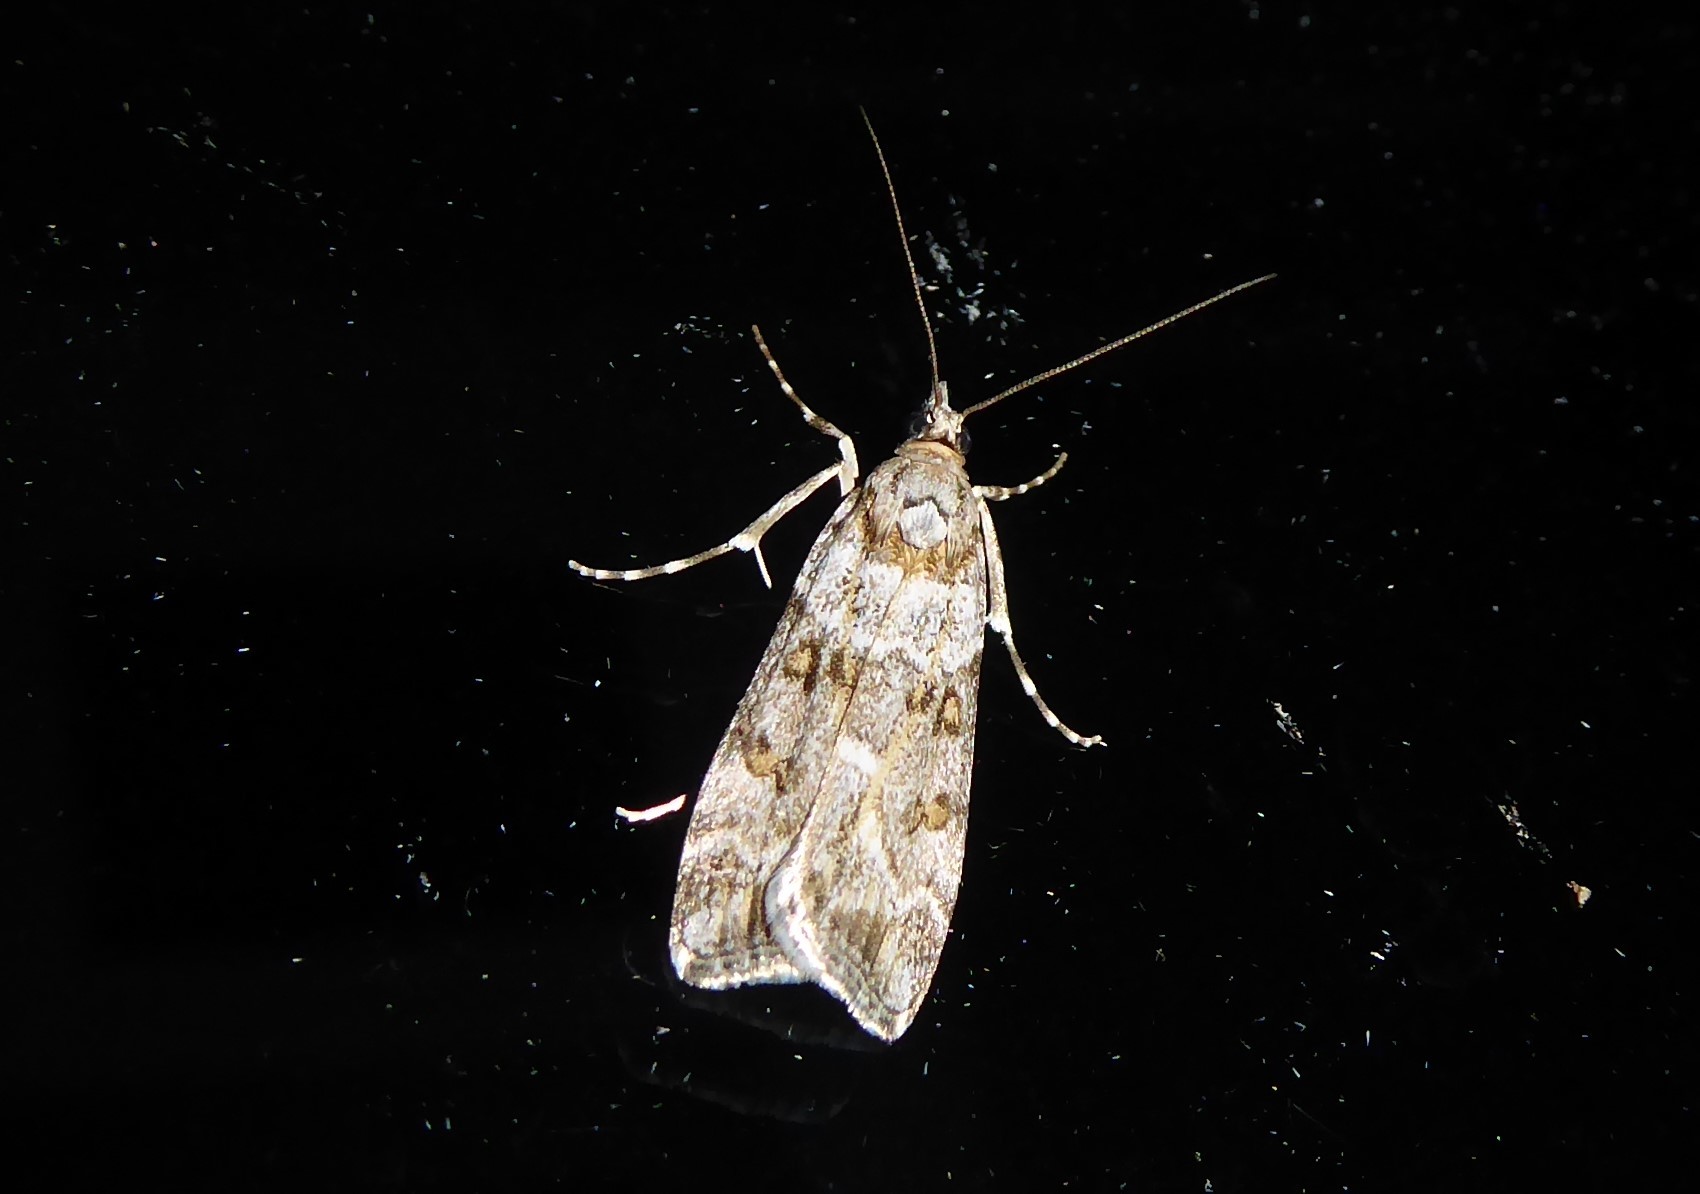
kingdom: Animalia
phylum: Arthropoda
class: Insecta
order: Lepidoptera
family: Crambidae
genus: Eudonia
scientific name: Eudonia diphtheralis
